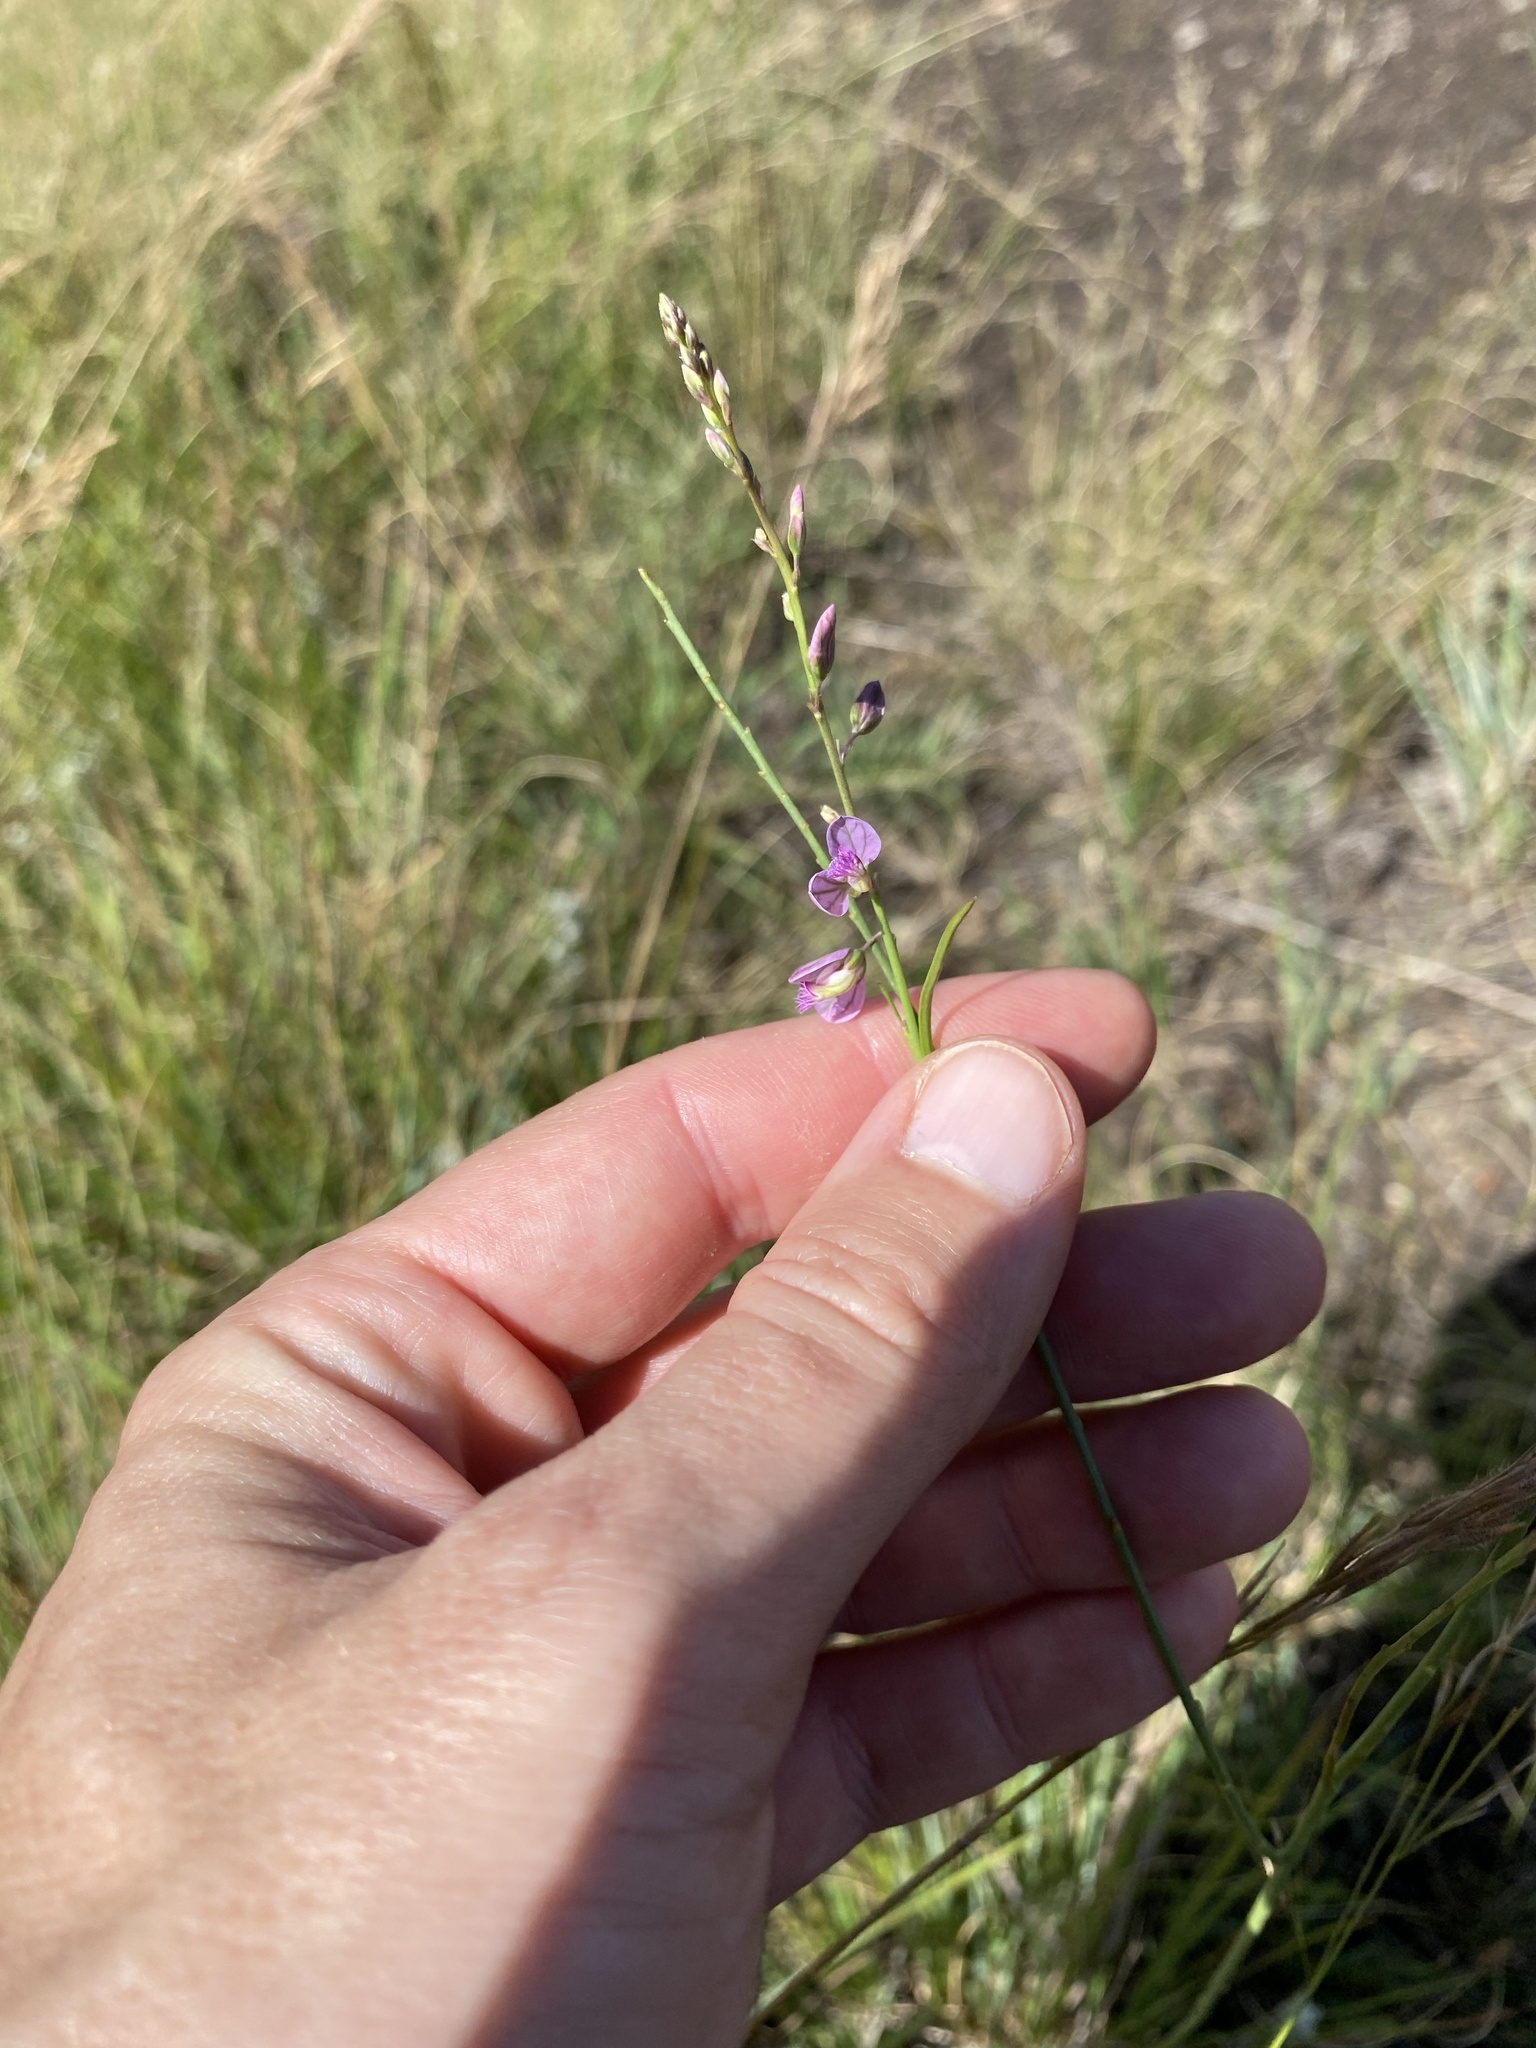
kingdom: Plantae
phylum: Tracheophyta
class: Magnoliopsida
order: Fabales
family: Polygalaceae
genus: Polygala
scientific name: Polygala hottentotta
